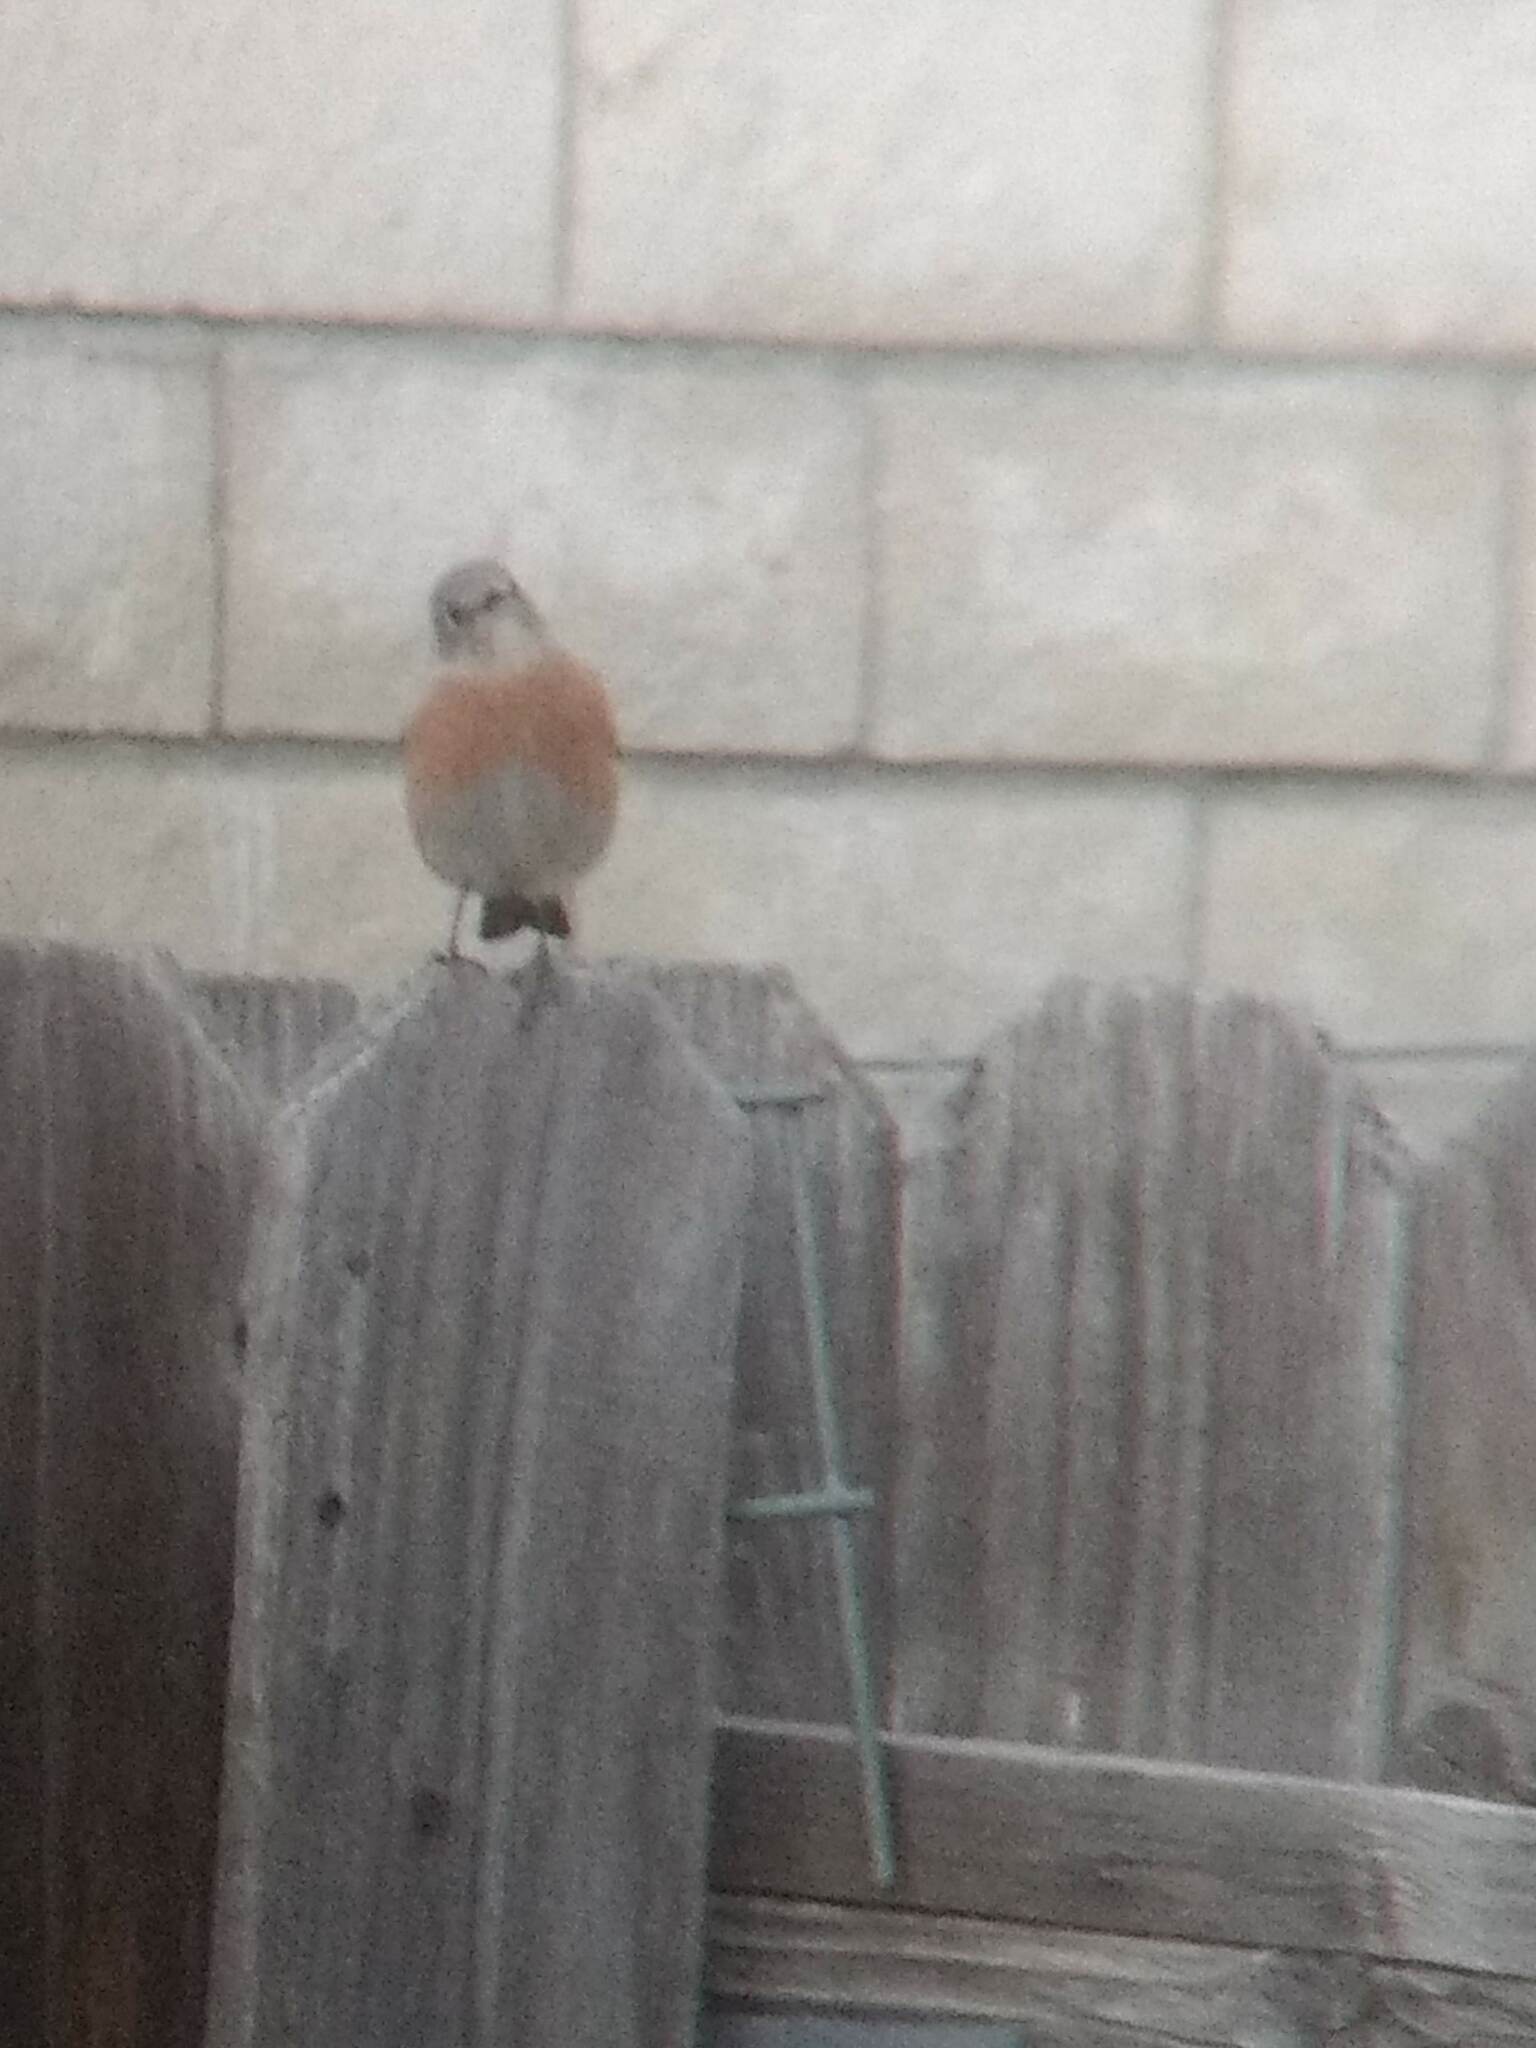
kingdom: Animalia
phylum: Chordata
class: Aves
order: Passeriformes
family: Turdidae
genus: Sialia
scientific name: Sialia mexicana
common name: Western bluebird
